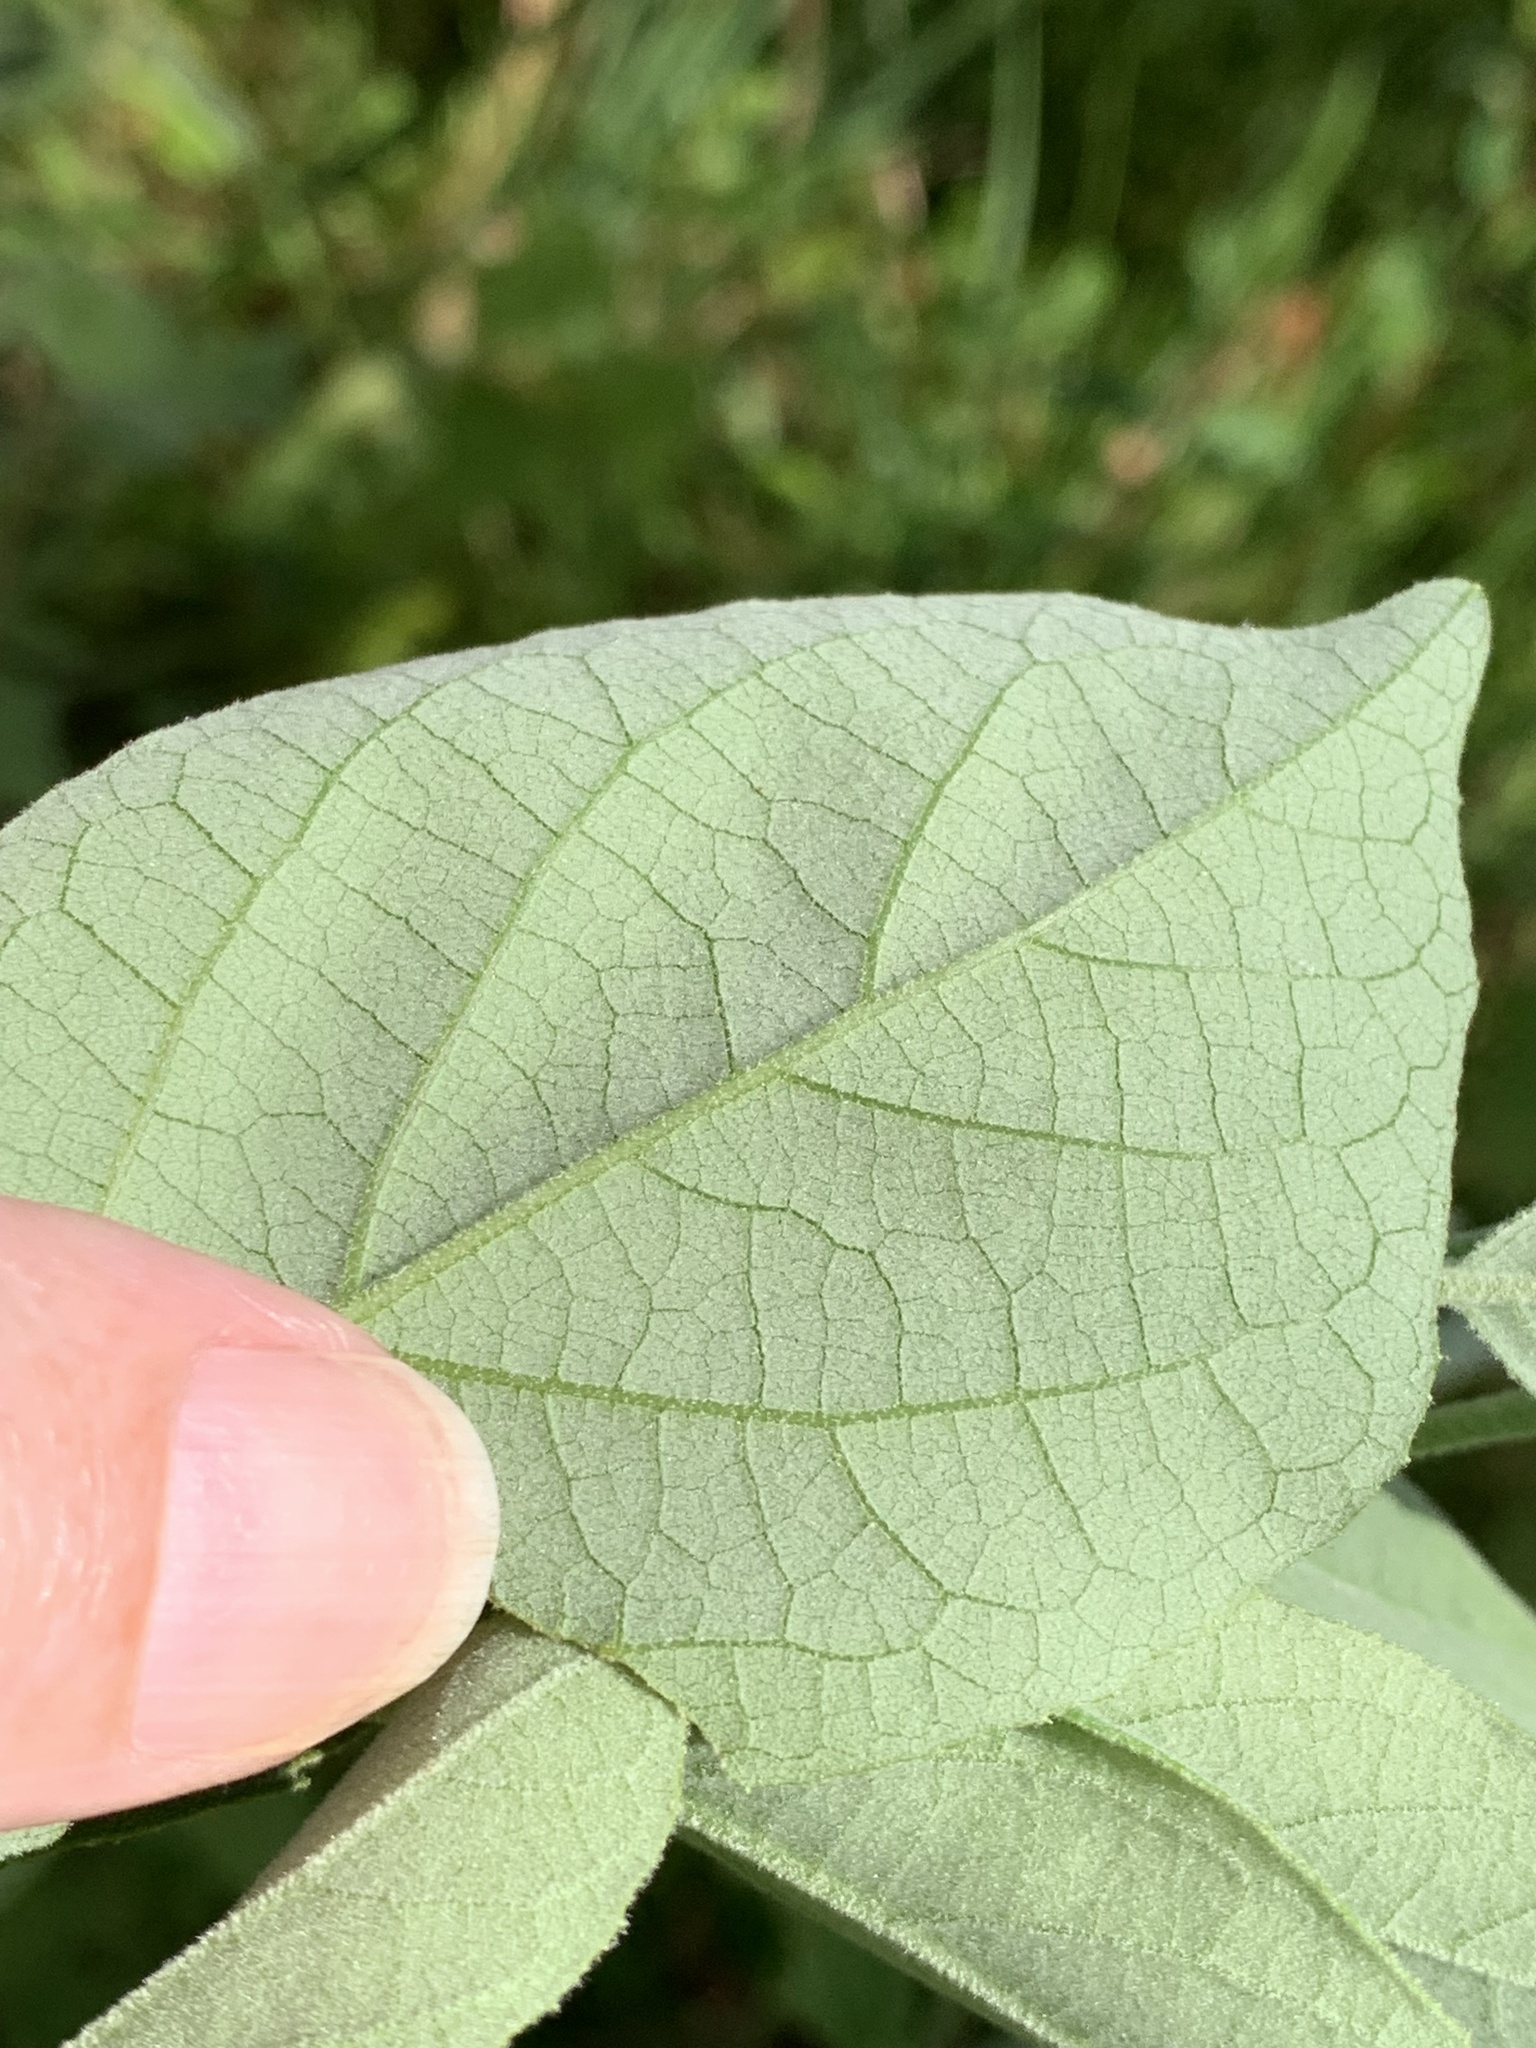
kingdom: Plantae
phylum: Tracheophyta
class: Magnoliopsida
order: Ericales
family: Styracaceae
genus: Styrax
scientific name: Styrax americanus
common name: American snowbell
